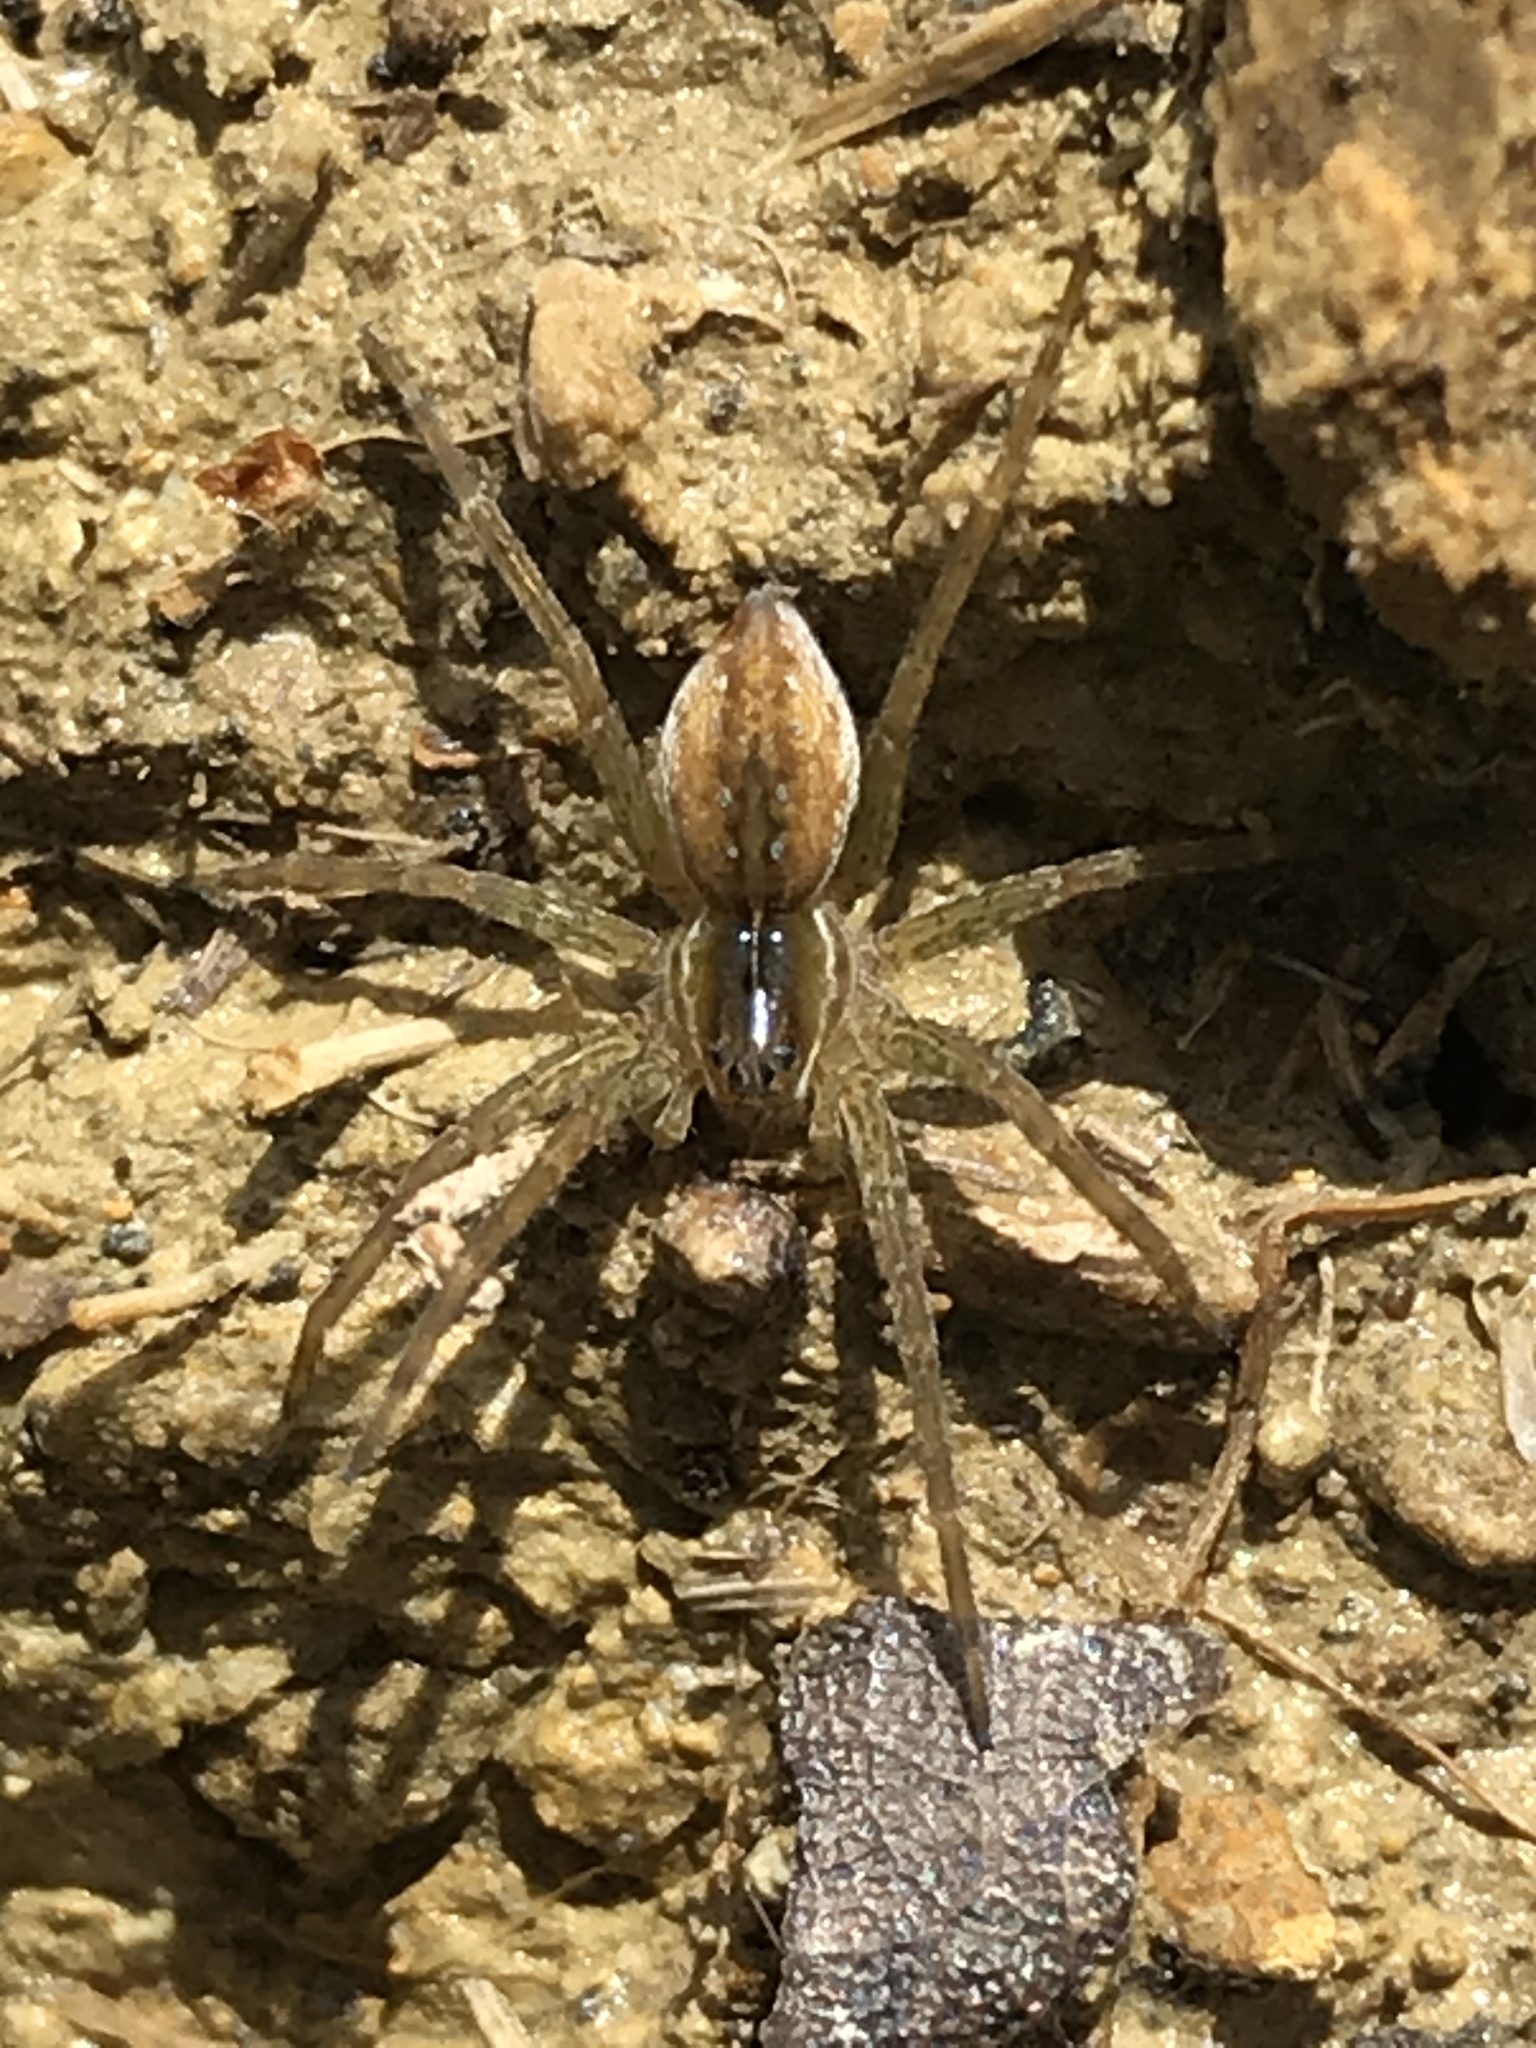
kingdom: Animalia
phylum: Arthropoda
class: Arachnida
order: Araneae
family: Pisauridae
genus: Dolomedes
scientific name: Dolomedes triton
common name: Six-spotted fishing spider
